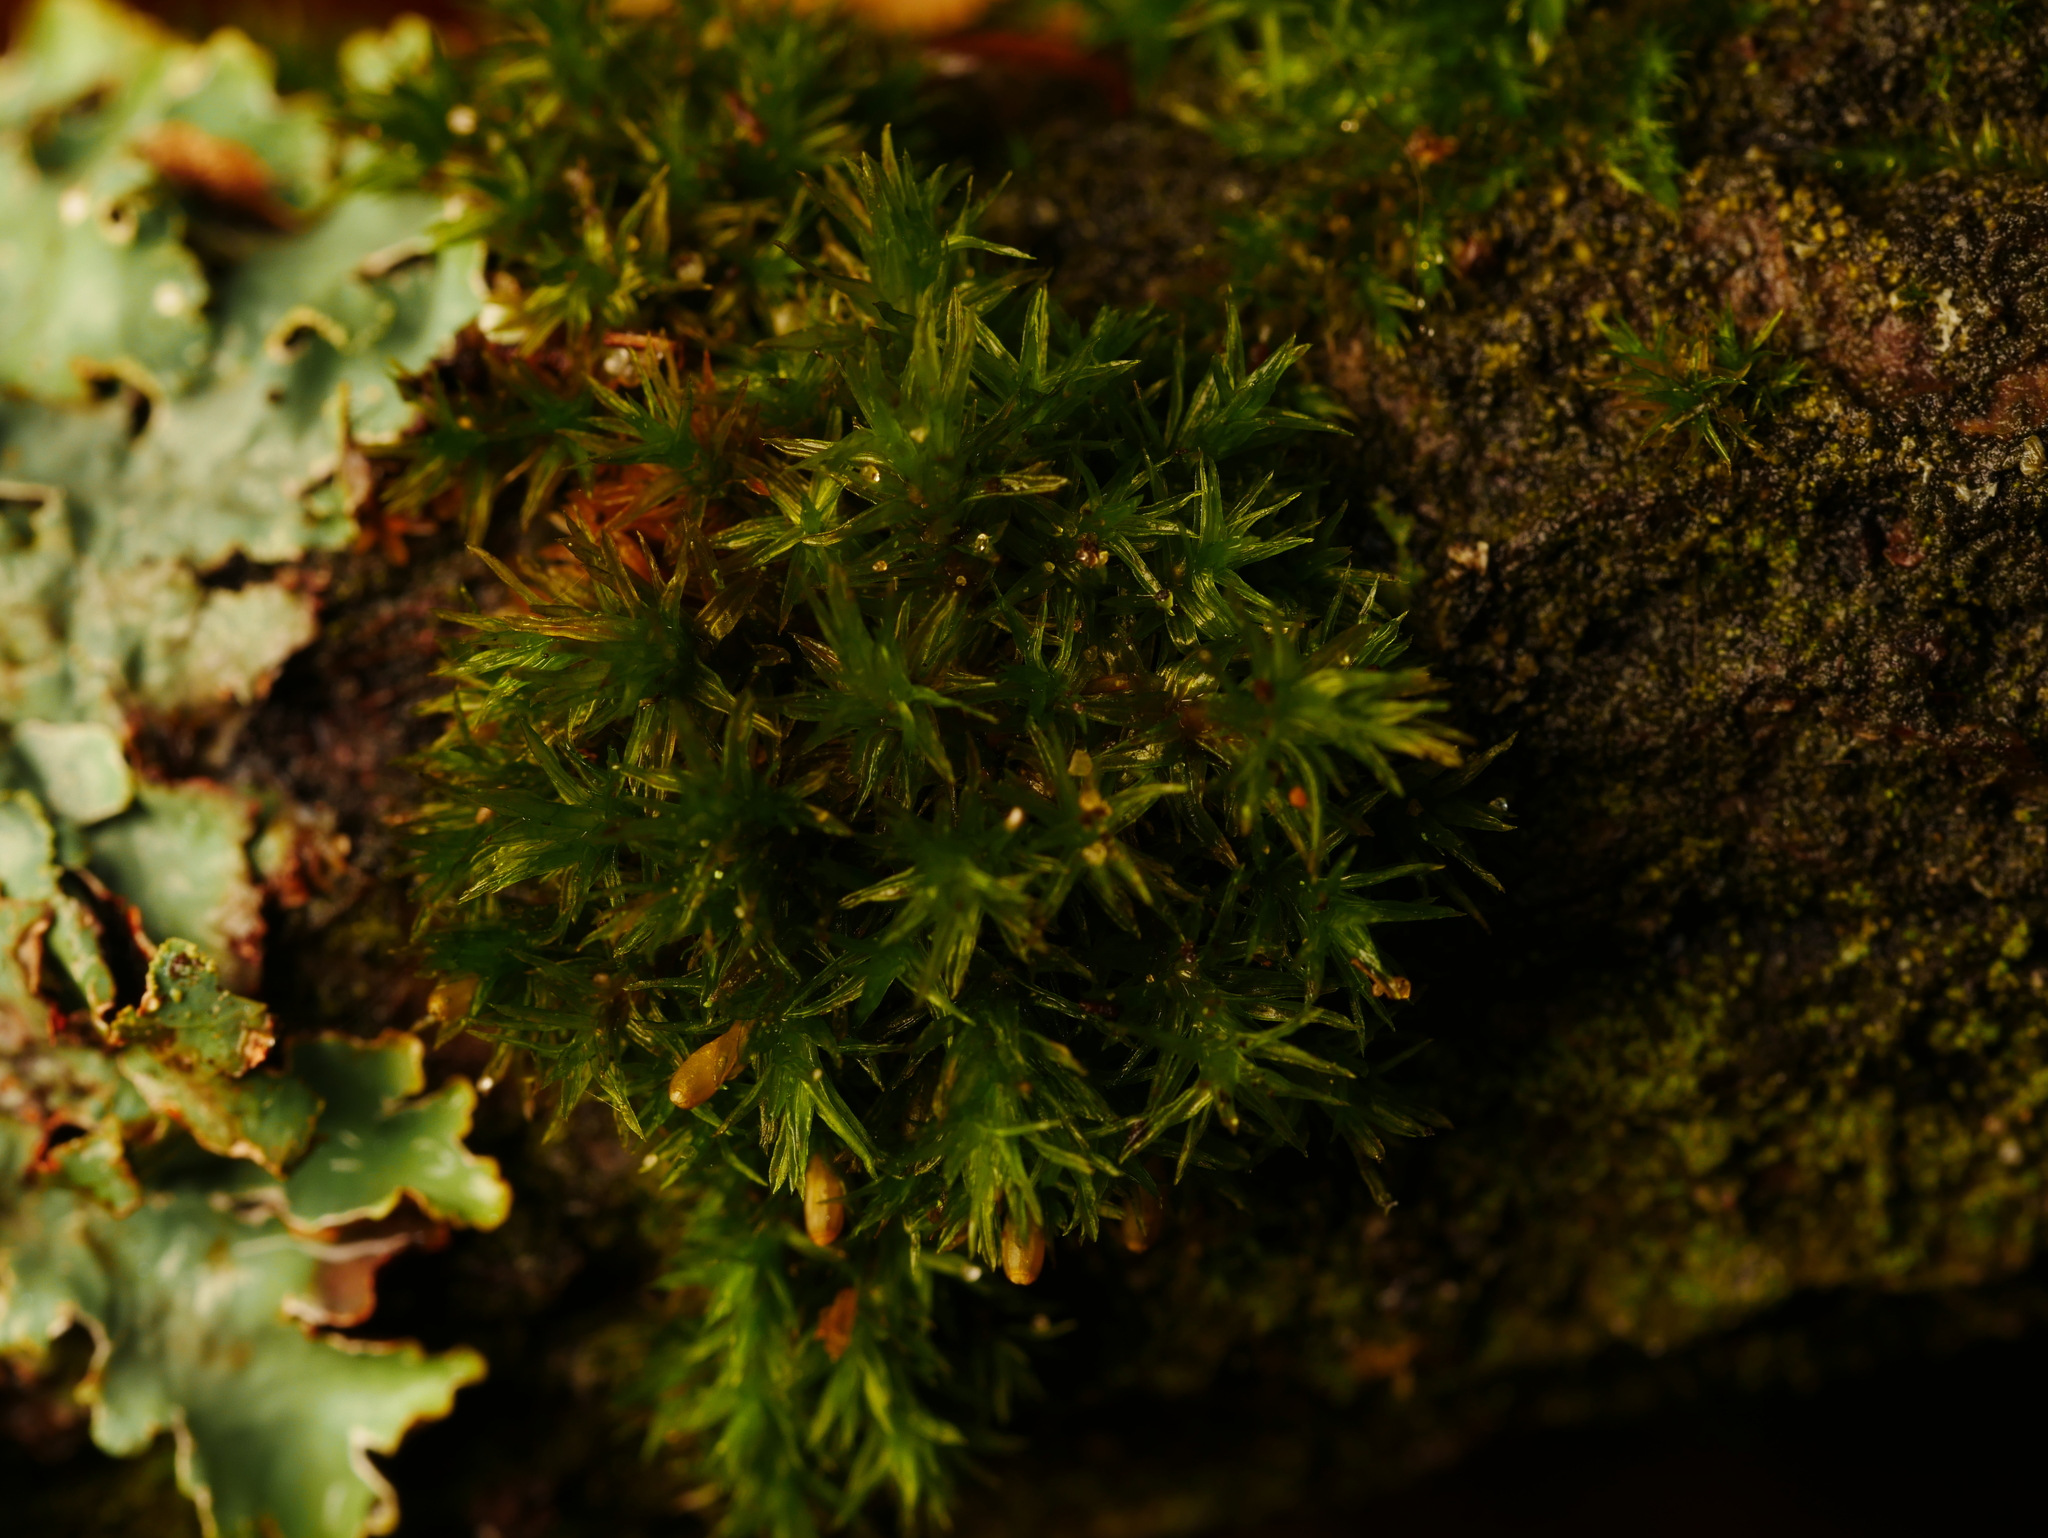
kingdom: Plantae
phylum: Bryophyta
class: Bryopsida
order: Orthotrichales
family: Orthotrichaceae
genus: Lewinskya
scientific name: Lewinskya affinis
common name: Wood bristle-moss
